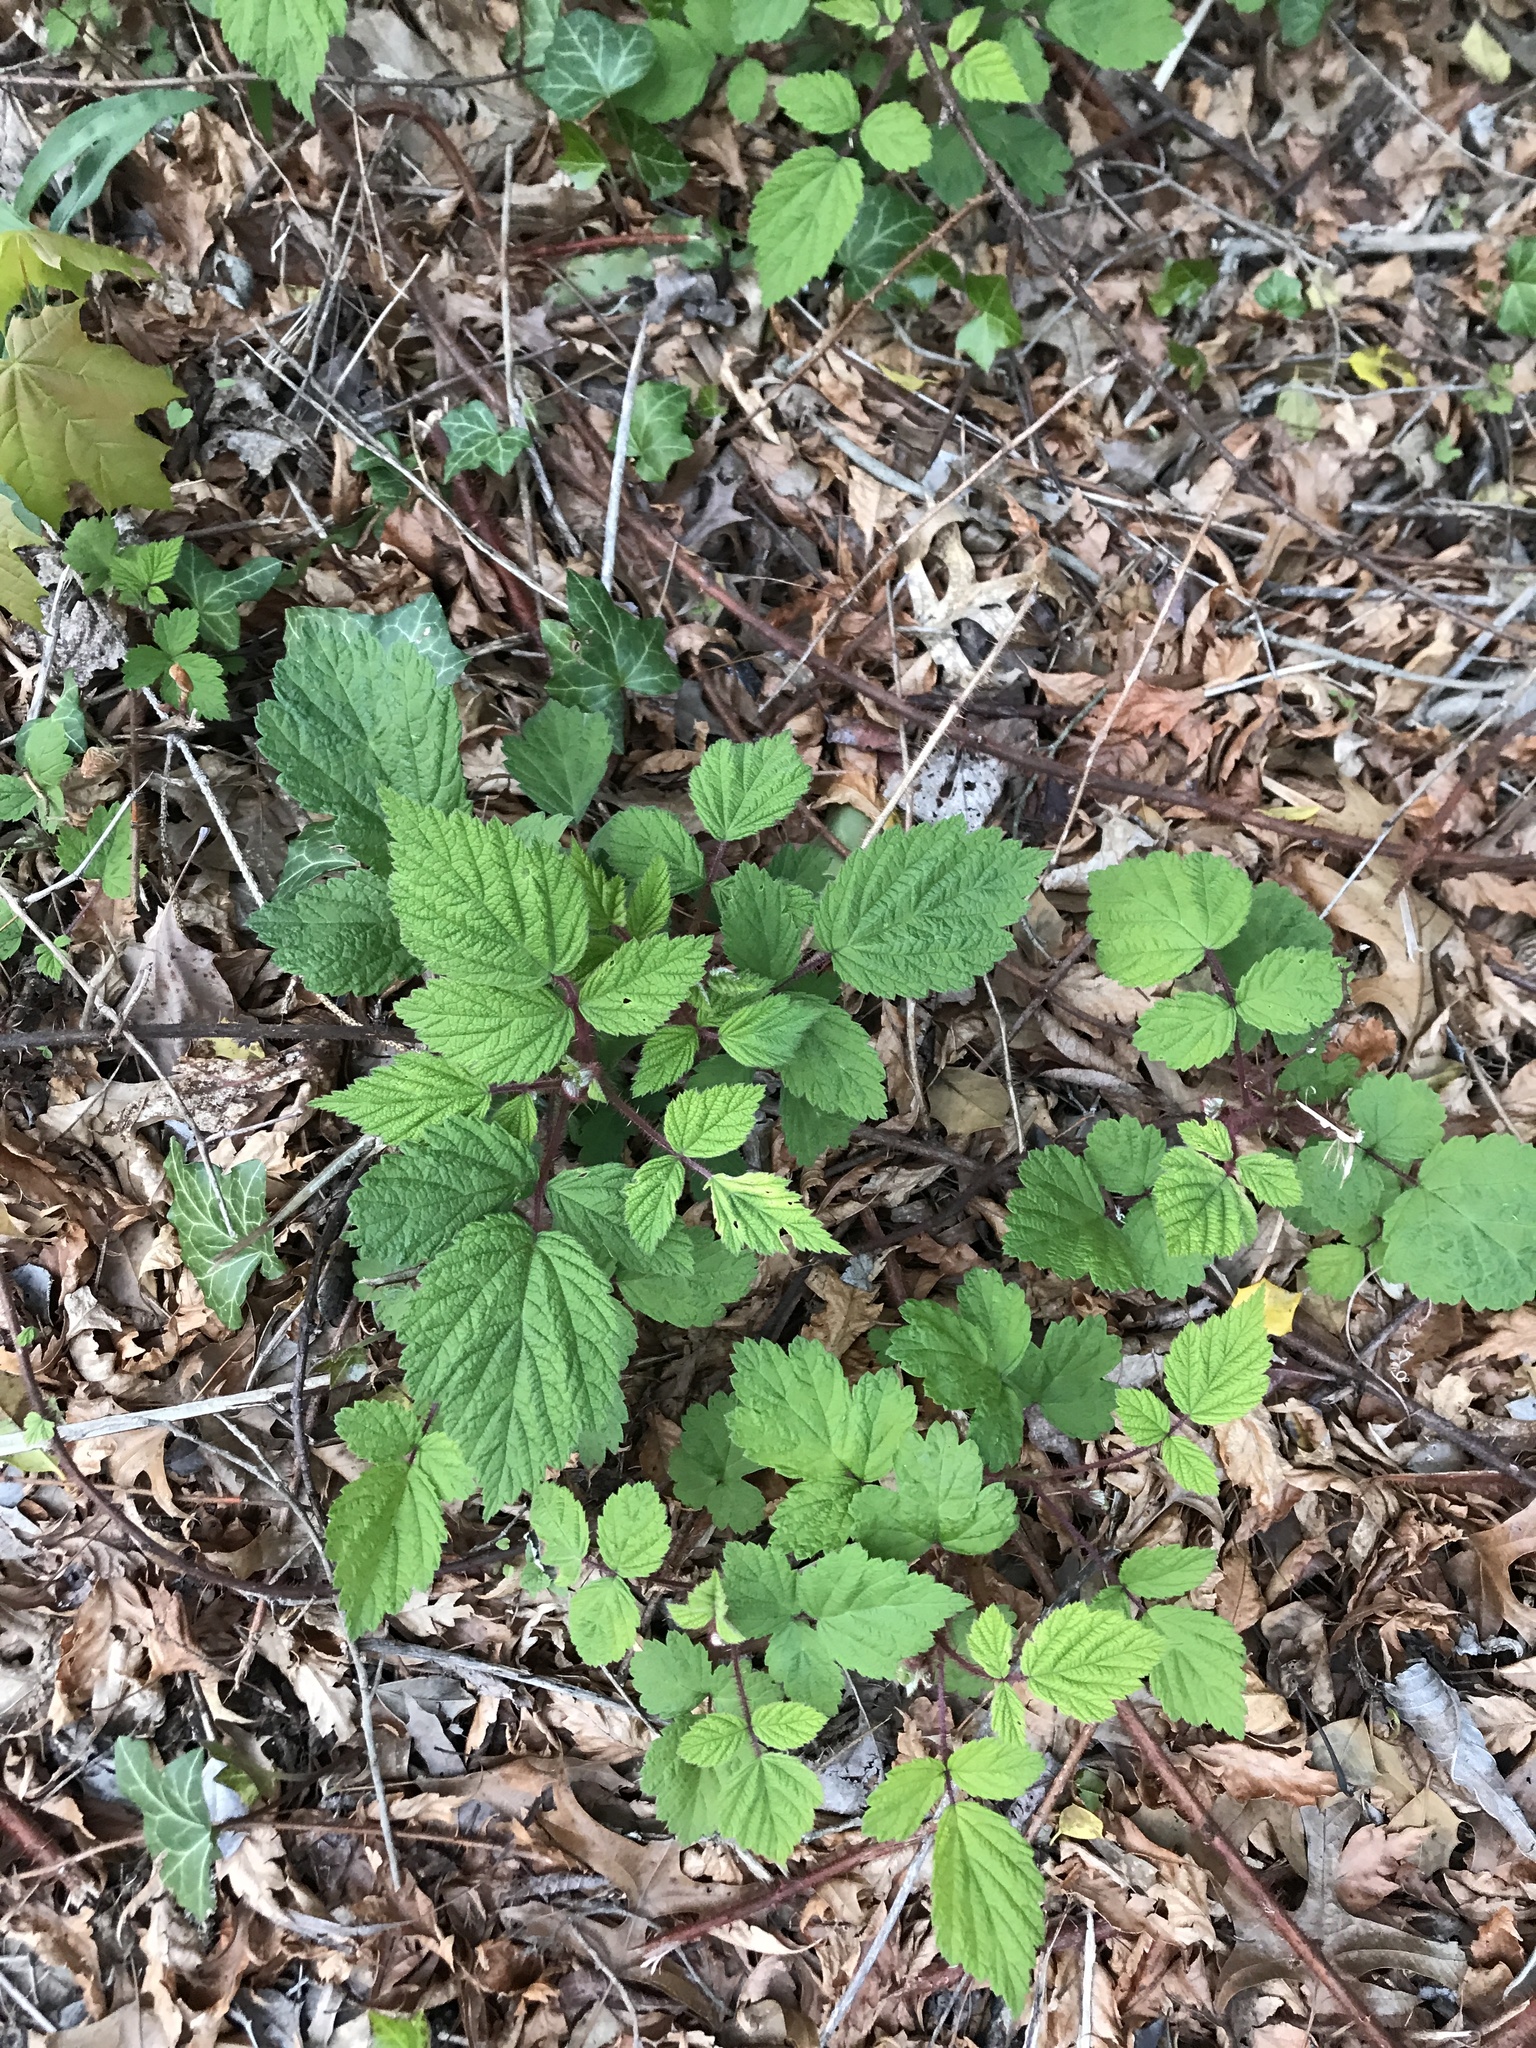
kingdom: Plantae
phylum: Tracheophyta
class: Magnoliopsida
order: Rosales
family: Rosaceae
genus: Rubus
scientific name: Rubus phoenicolasius
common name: Japanese wineberry
